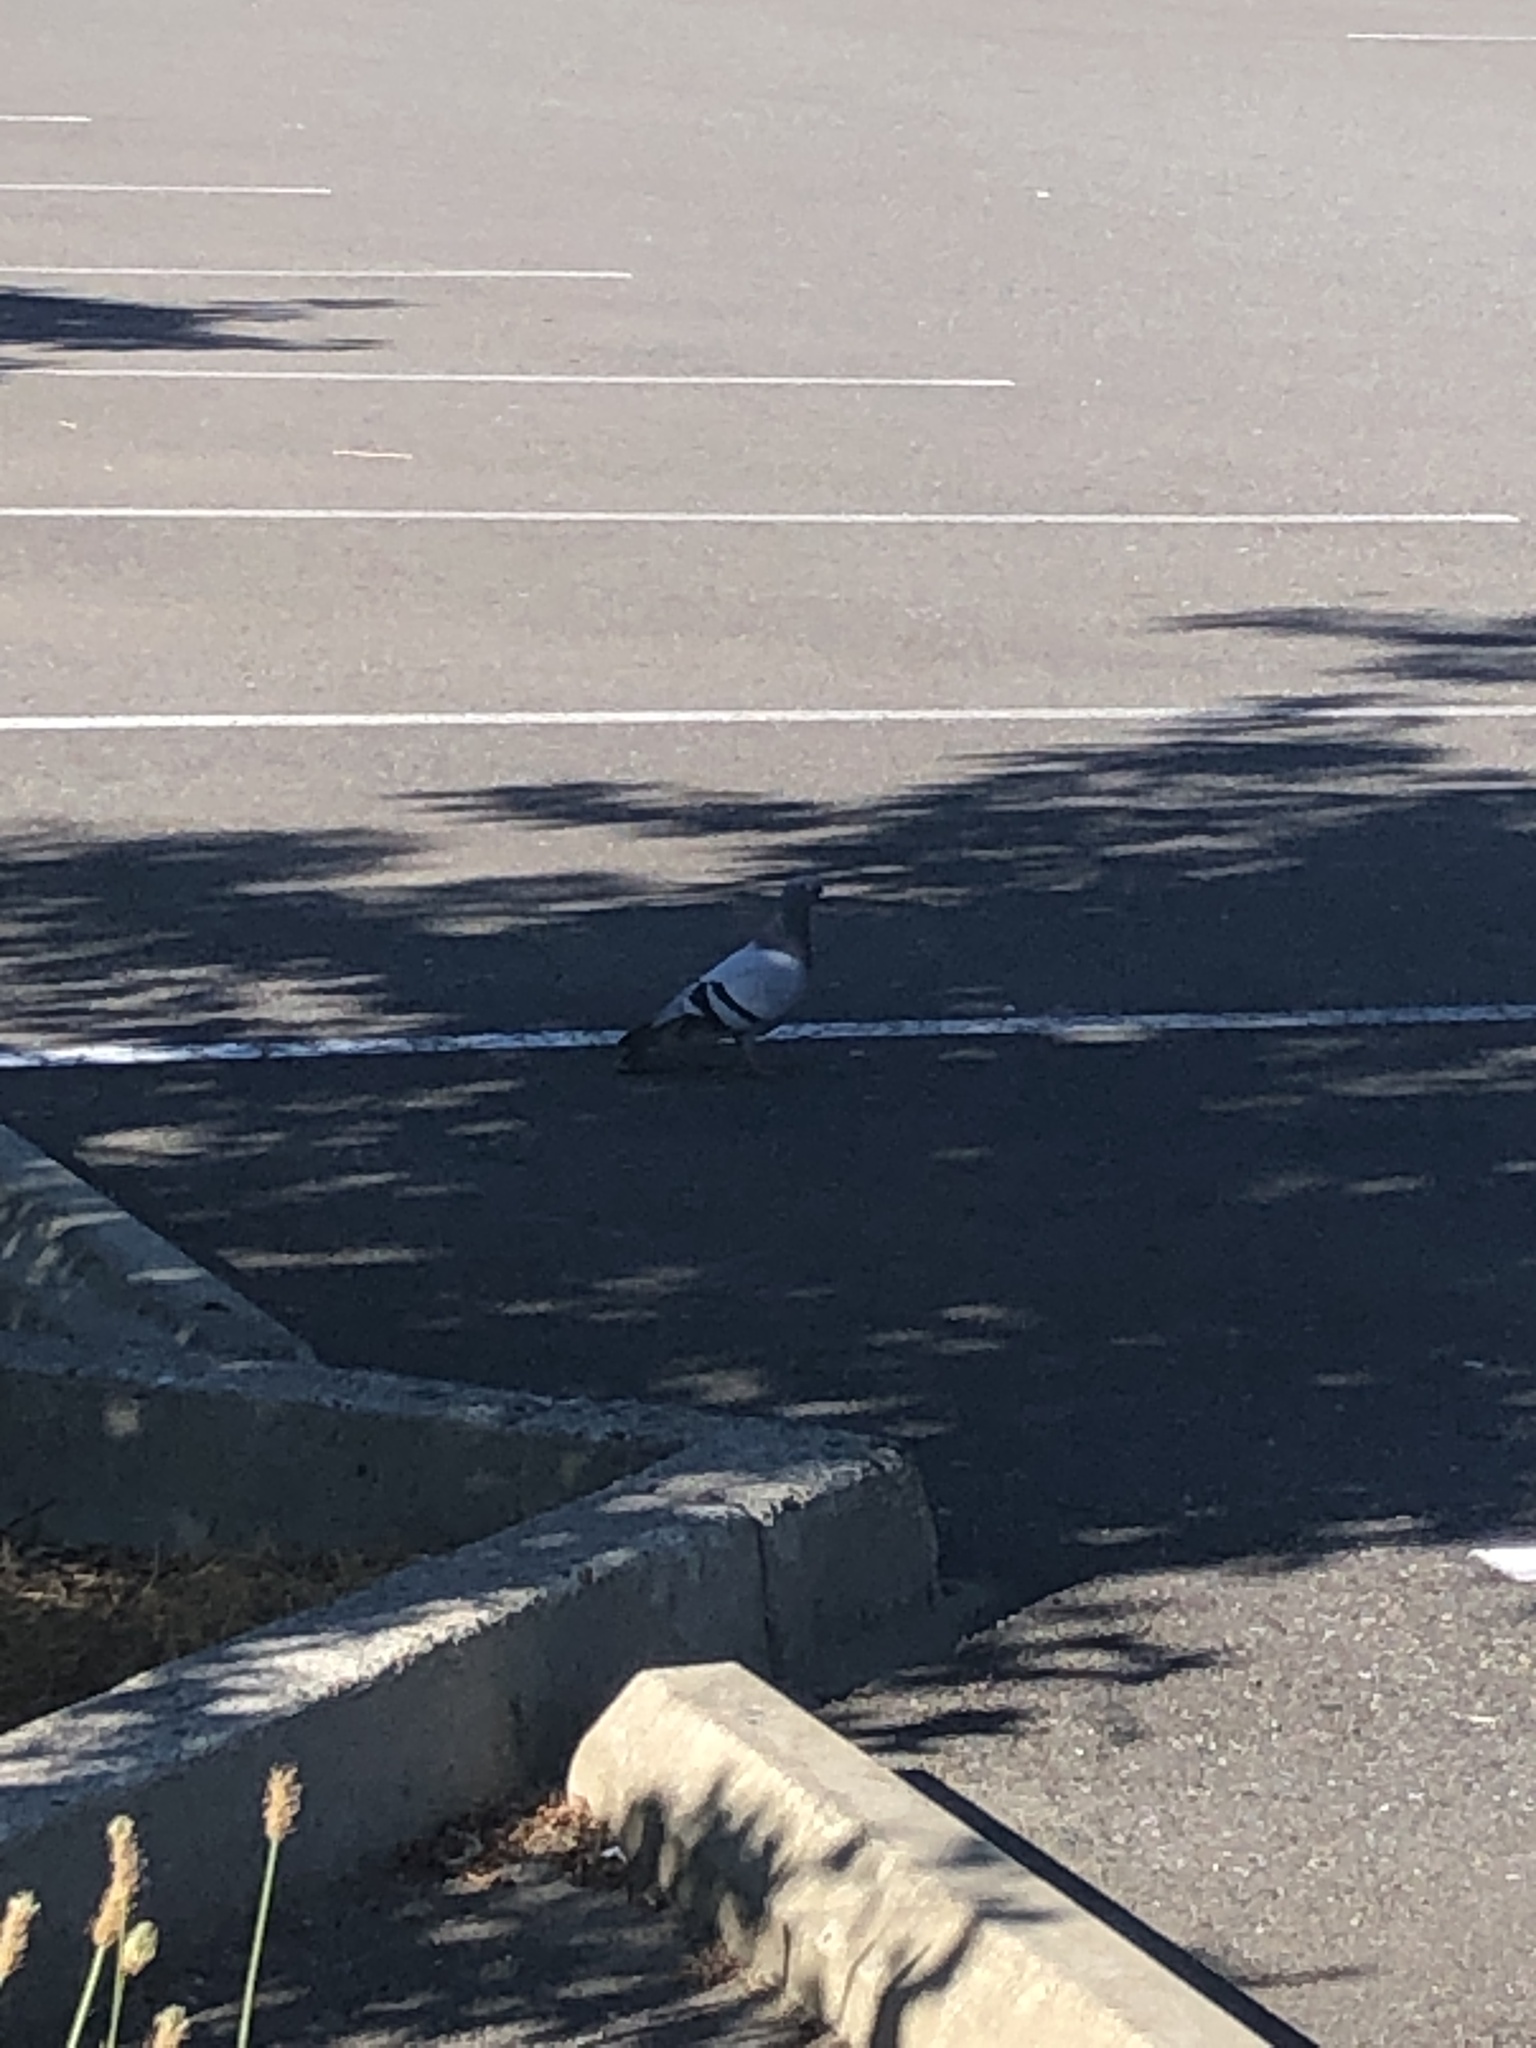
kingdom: Animalia
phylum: Chordata
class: Aves
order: Columbiformes
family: Columbidae
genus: Columba
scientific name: Columba livia
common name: Rock pigeon
